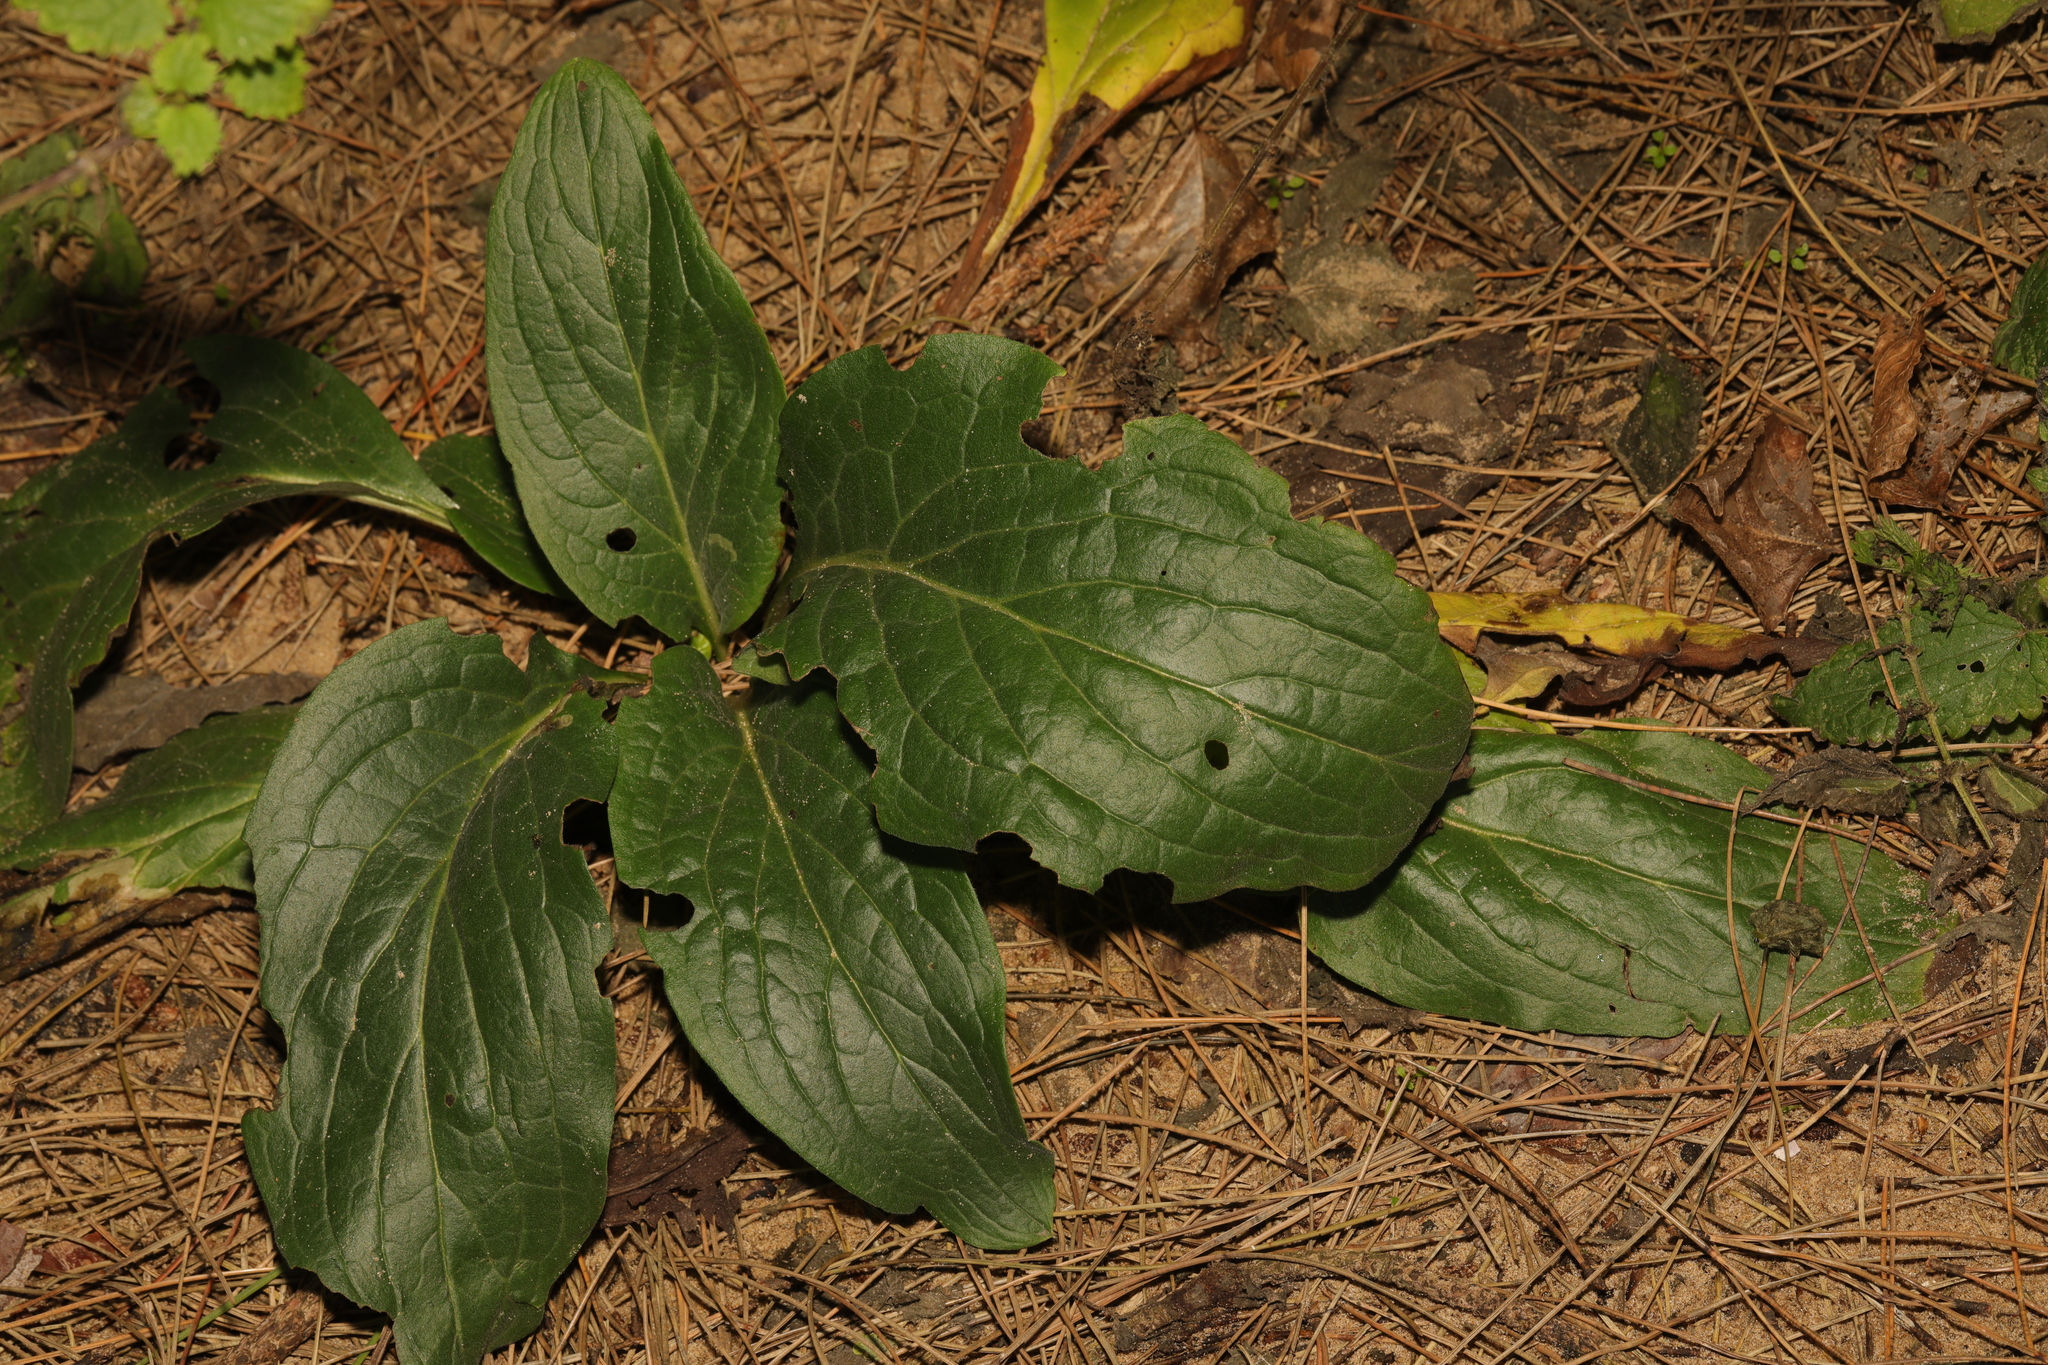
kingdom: Plantae
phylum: Tracheophyta
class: Magnoliopsida
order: Boraginales
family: Boraginaceae
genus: Cynoglossum
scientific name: Cynoglossum officinale
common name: Hound's-tongue
